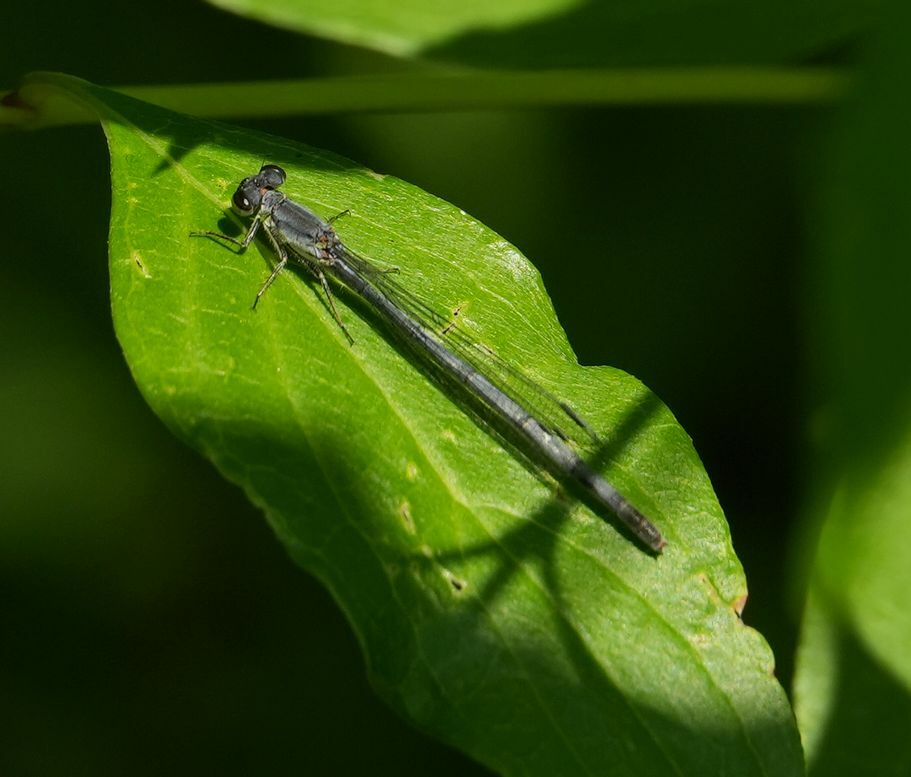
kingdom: Animalia
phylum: Arthropoda
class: Insecta
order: Odonata
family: Coenagrionidae
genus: Ischnura
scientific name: Ischnura verticalis
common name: Eastern forktail
